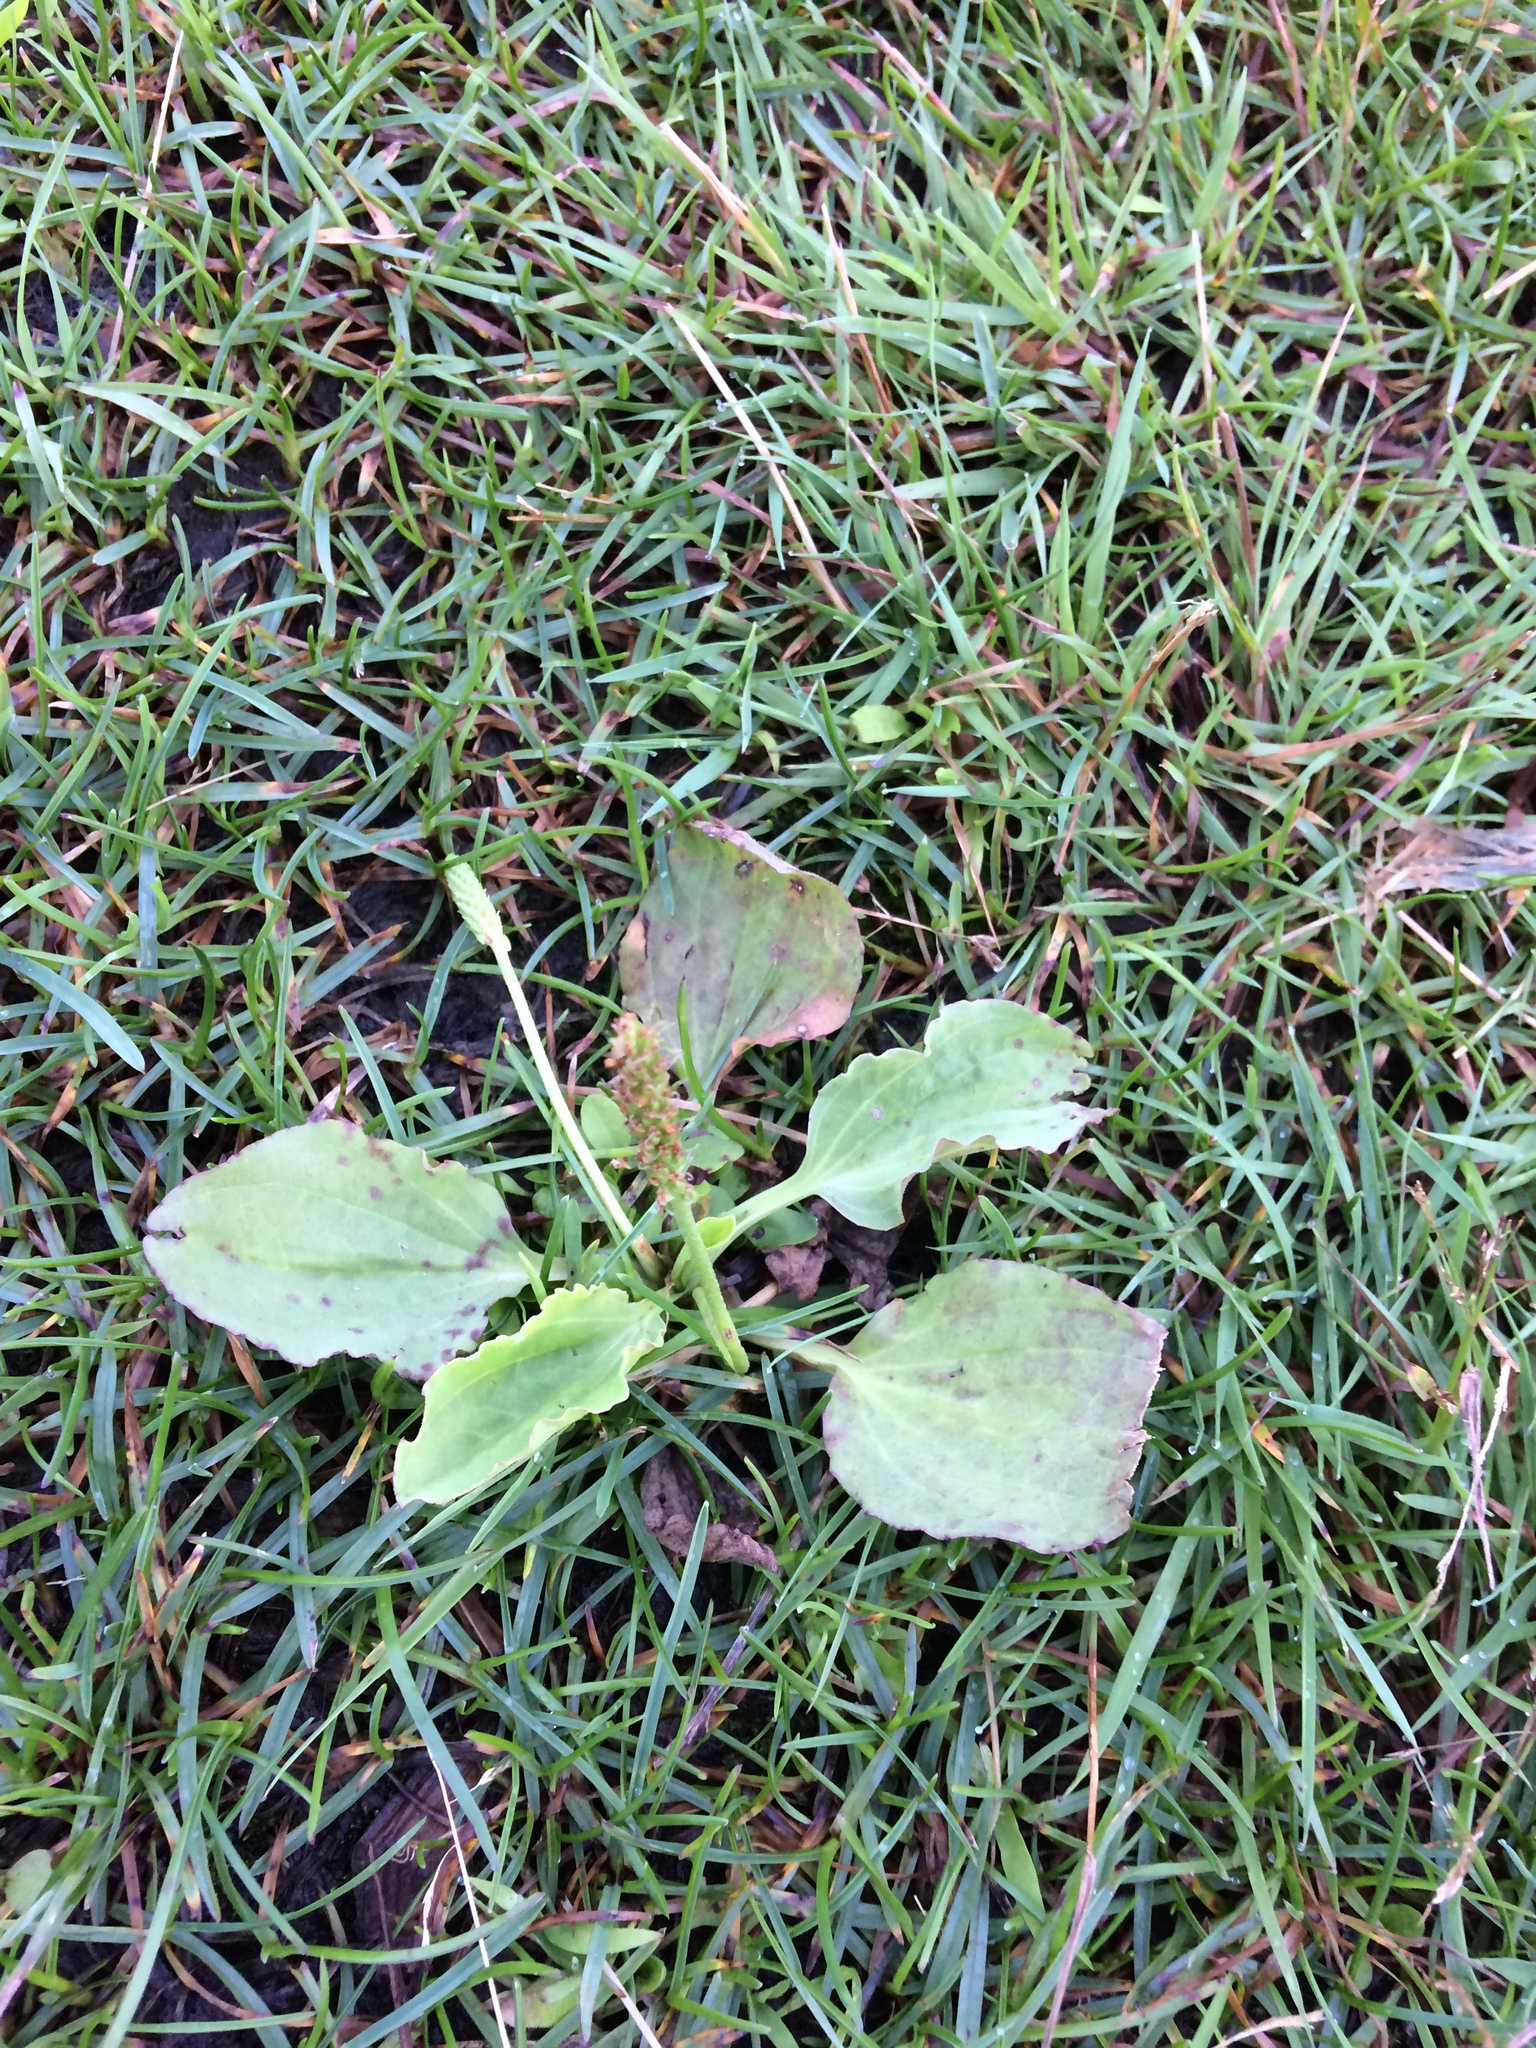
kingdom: Plantae
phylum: Tracheophyta
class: Magnoliopsida
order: Lamiales
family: Plantaginaceae
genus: Plantago
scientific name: Plantago major
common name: Common plantain
